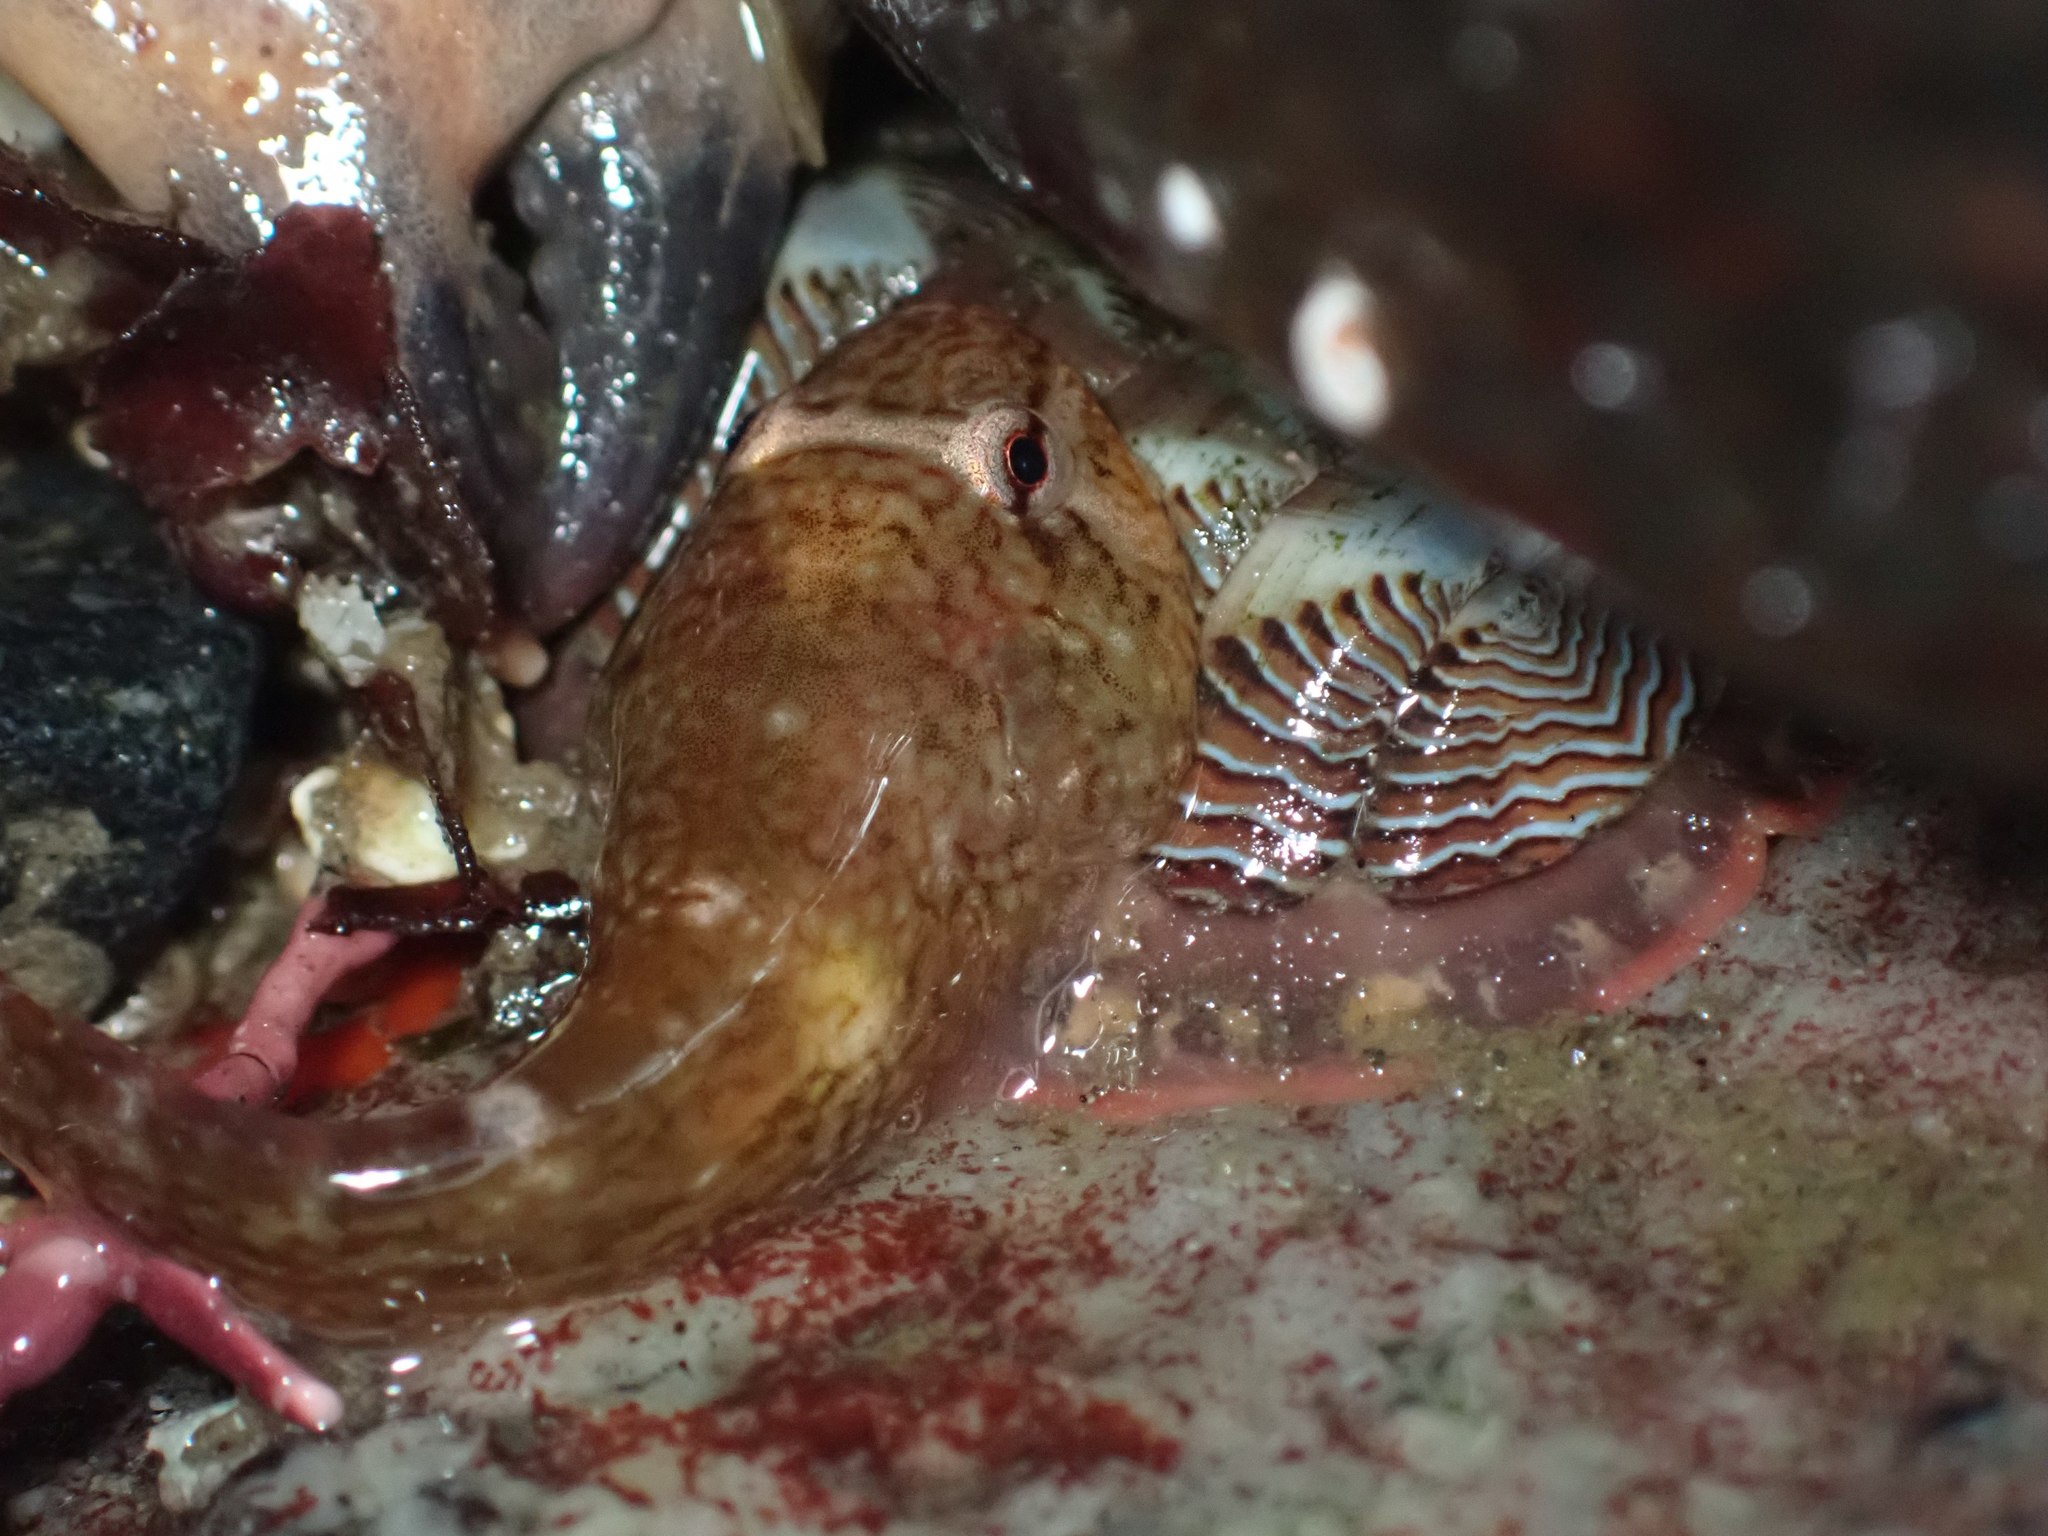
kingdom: Animalia
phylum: Chordata
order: Gobiesociformes
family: Gobiesocidae
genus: Gobiesox
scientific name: Gobiesox maeandricus
